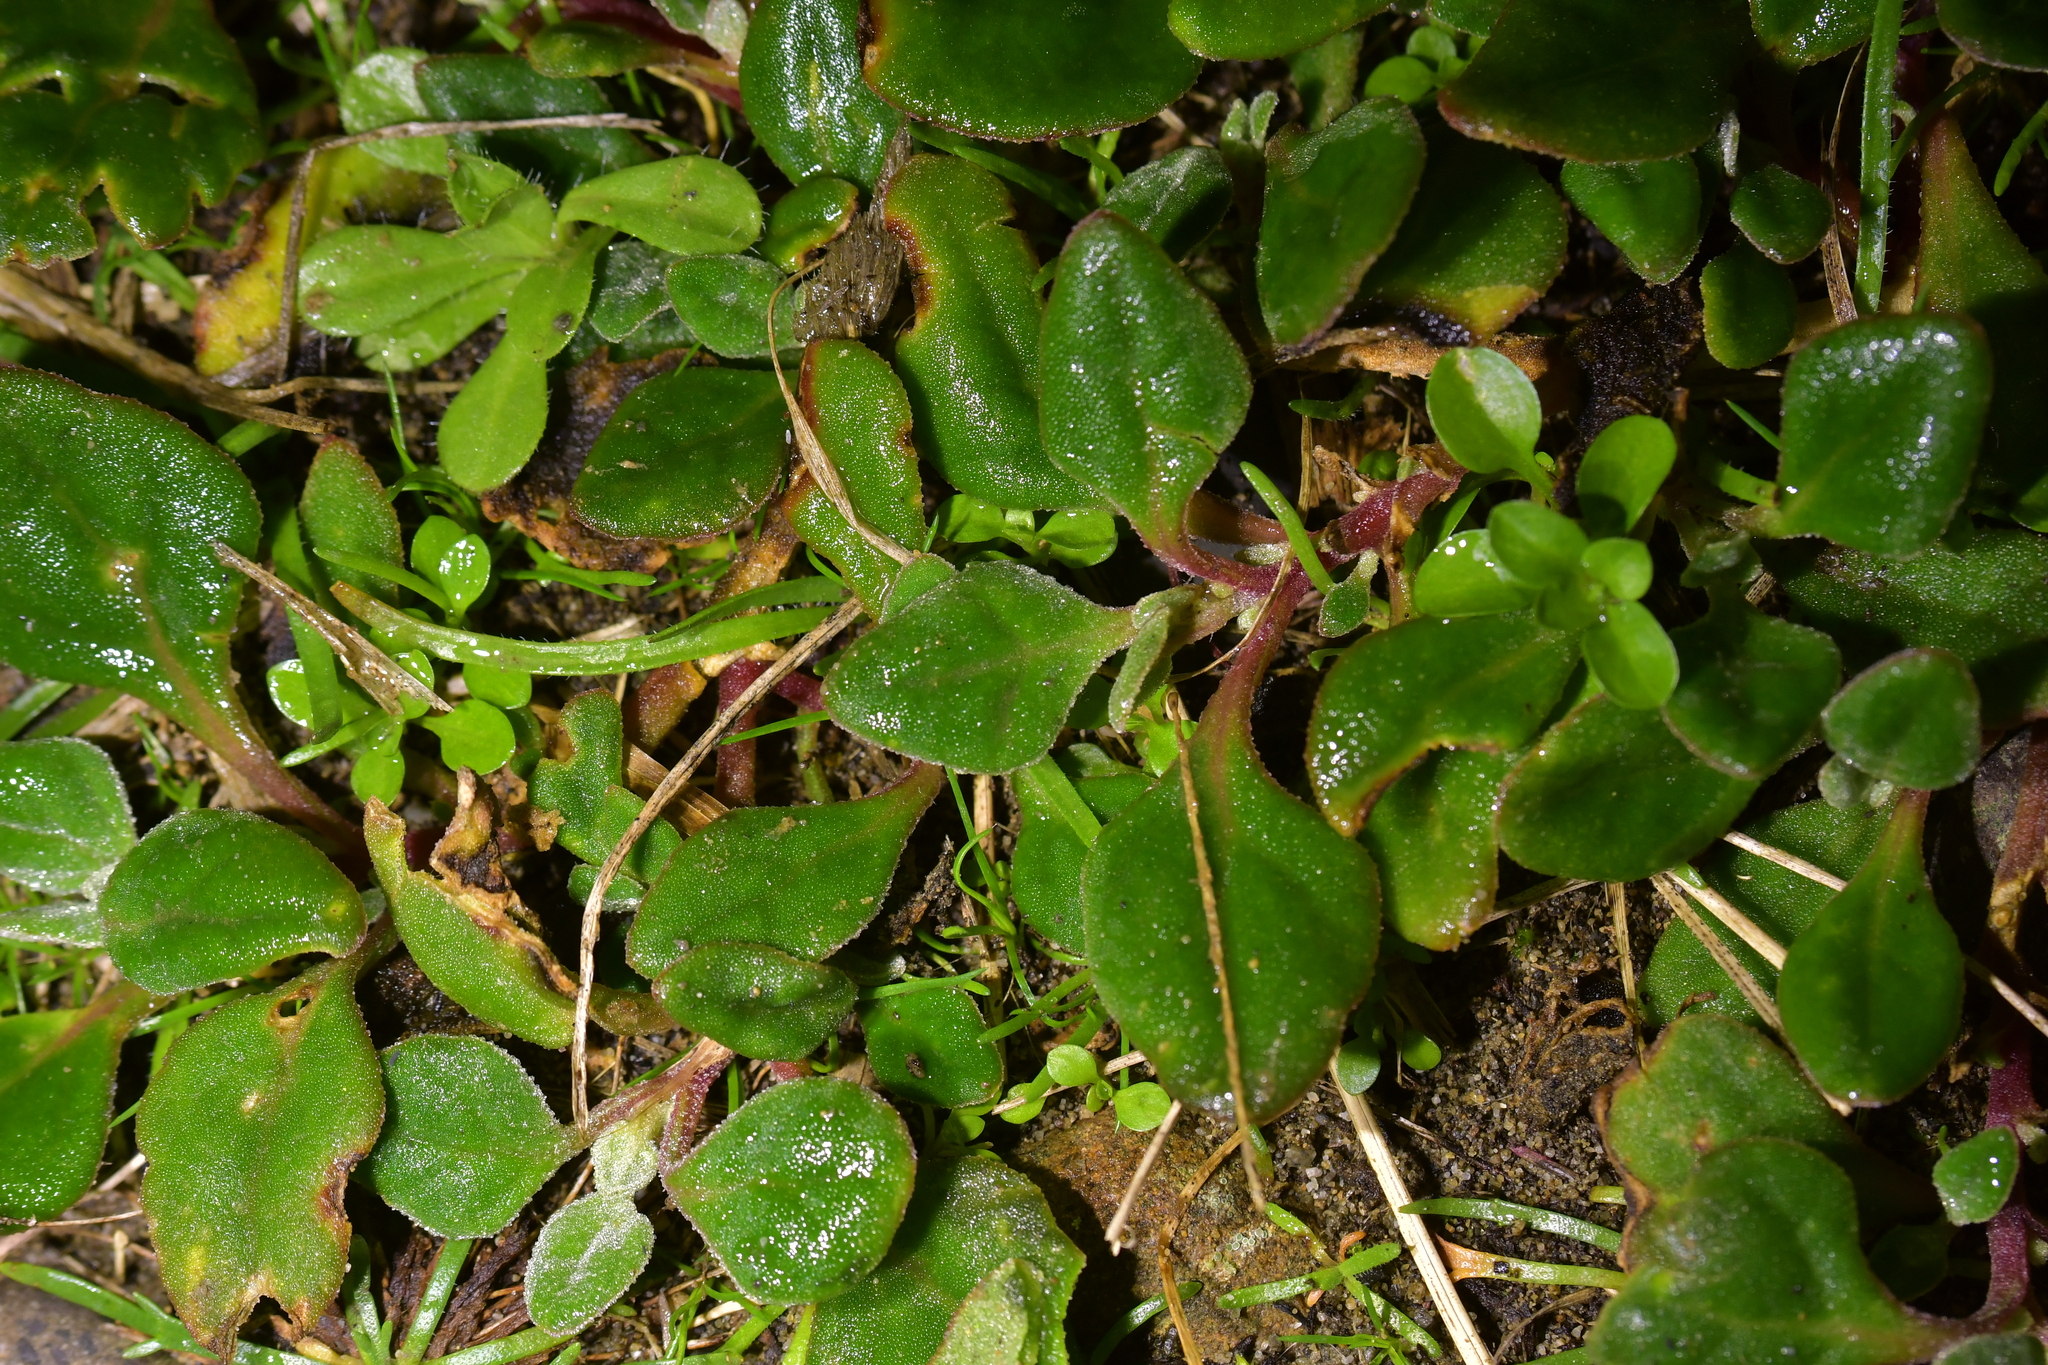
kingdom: Plantae
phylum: Tracheophyta
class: Magnoliopsida
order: Caryophyllales
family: Aizoaceae
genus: Tetragonia
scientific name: Tetragonia implexicoma
